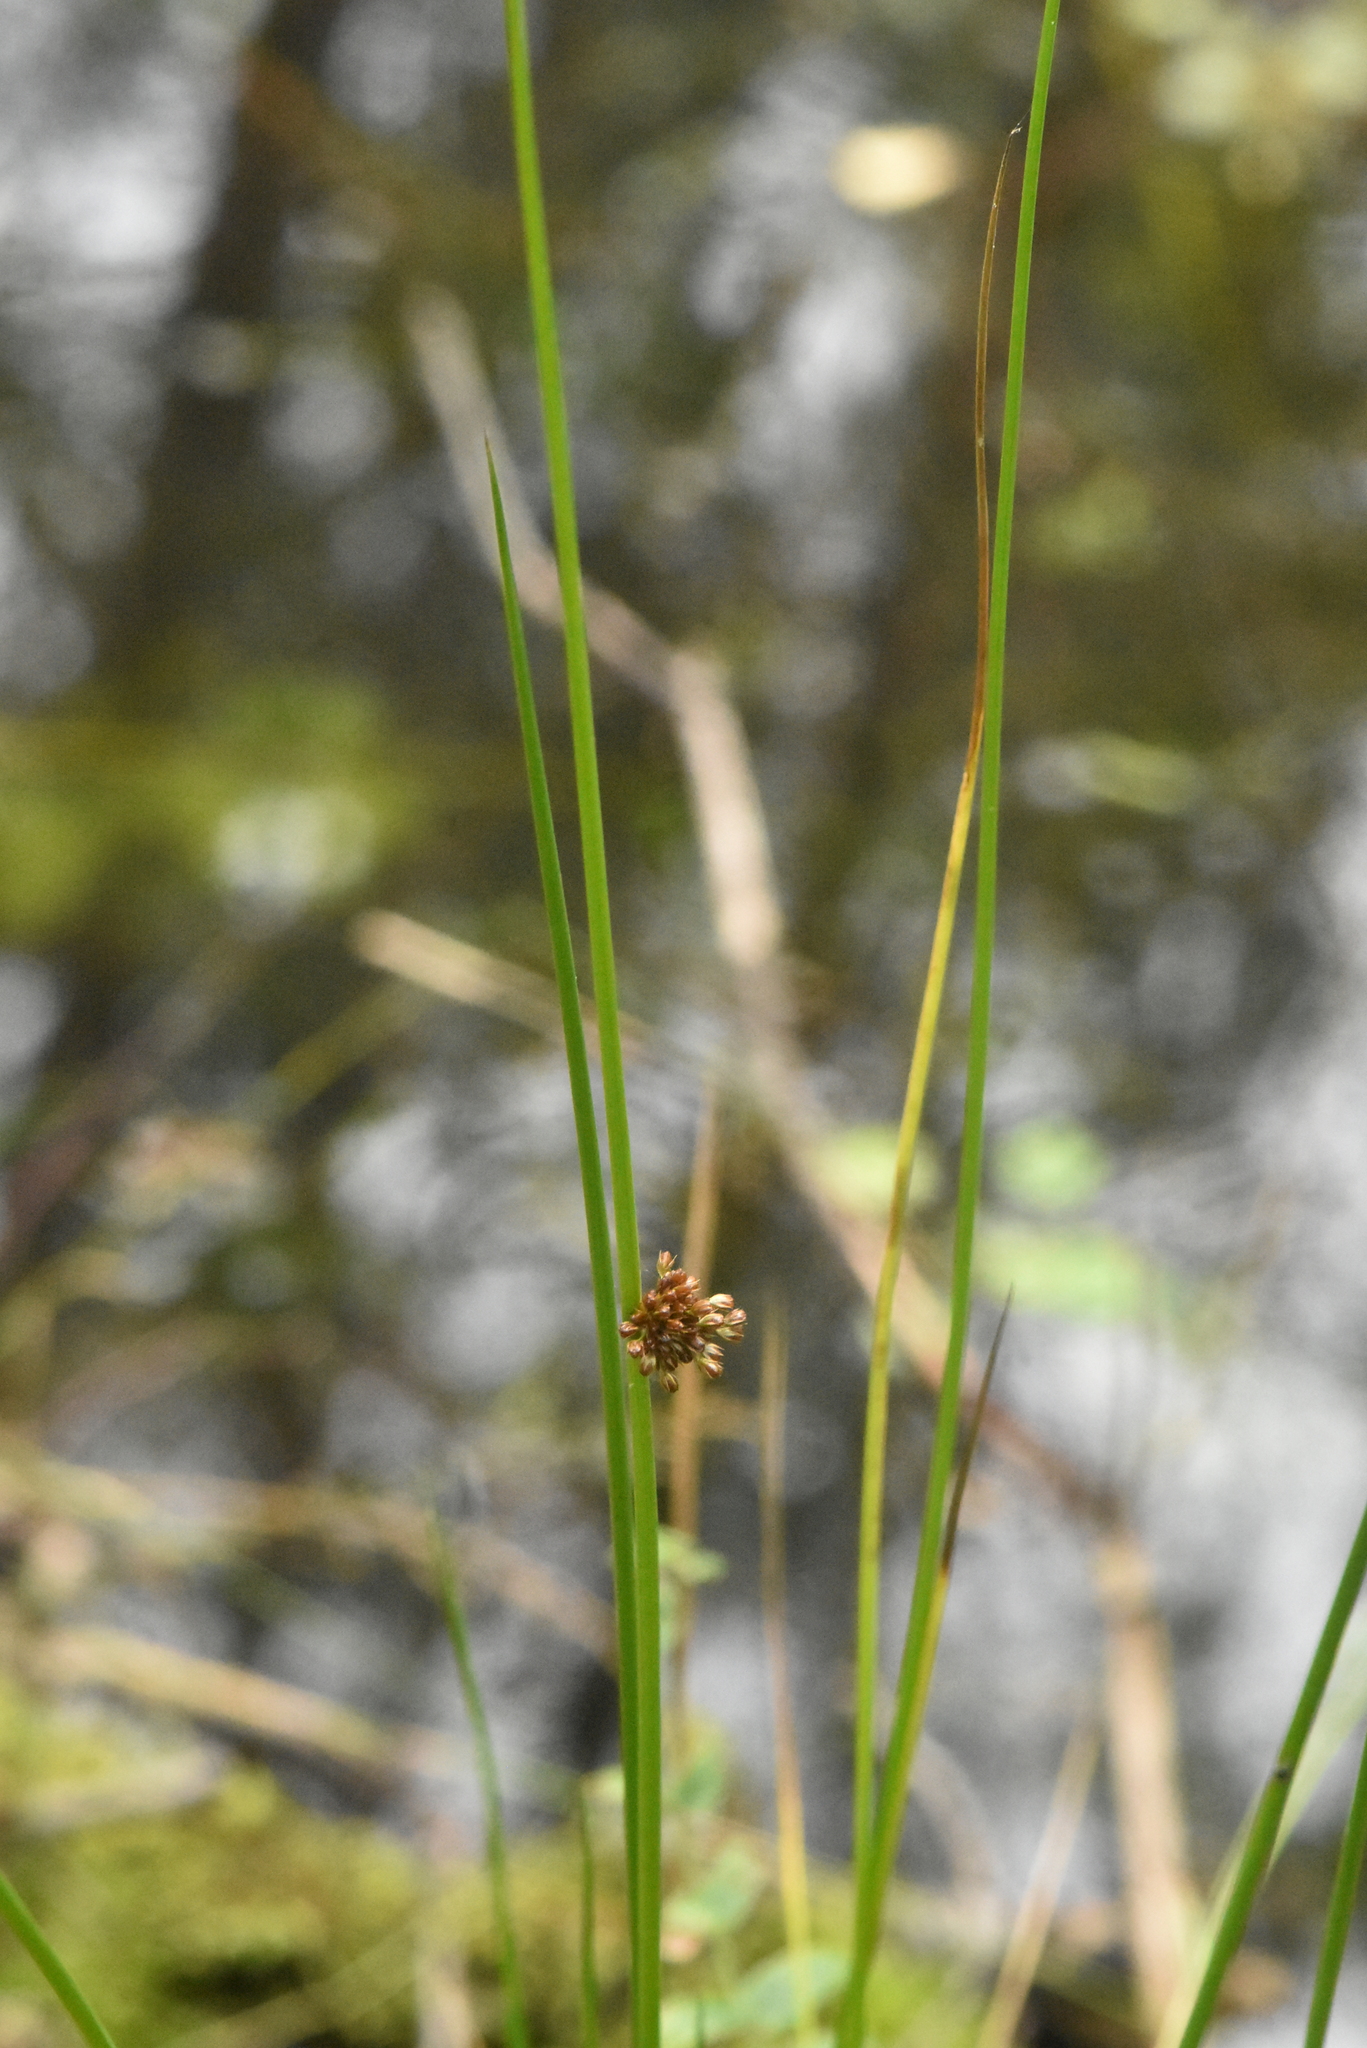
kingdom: Plantae
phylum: Tracheophyta
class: Liliopsida
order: Poales
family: Juncaceae
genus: Juncus
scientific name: Juncus effusus
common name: Soft rush
